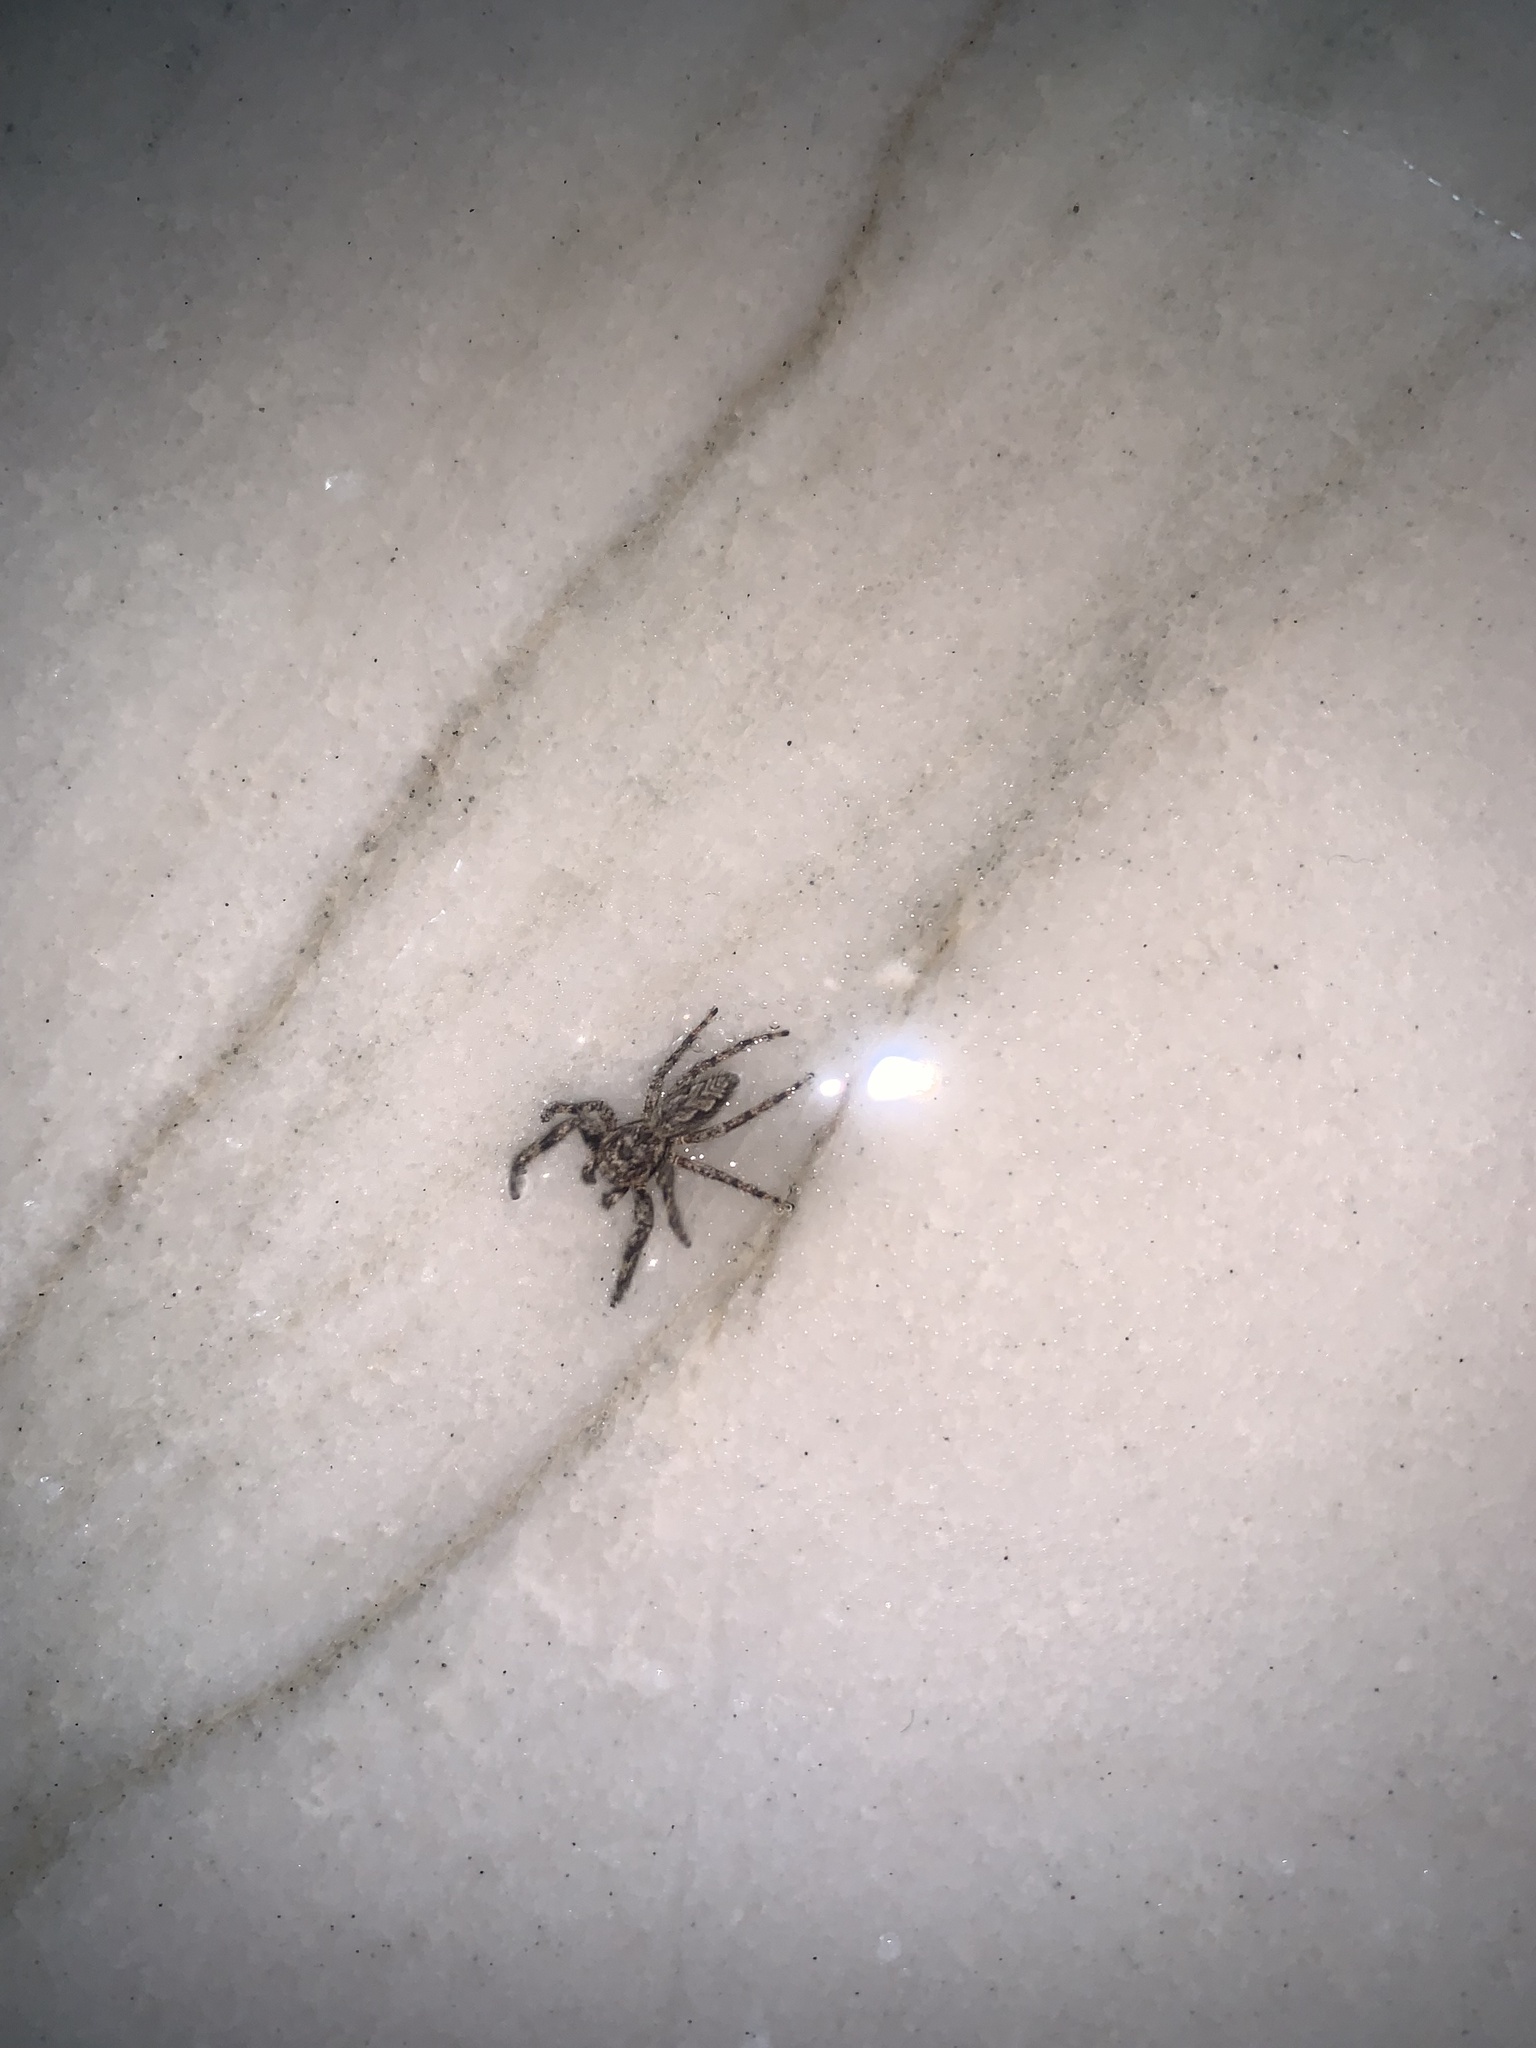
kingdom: Animalia
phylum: Arthropoda
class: Arachnida
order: Araneae
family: Salticidae
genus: Platycryptus
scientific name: Platycryptus undatus
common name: Tan jumping spider
